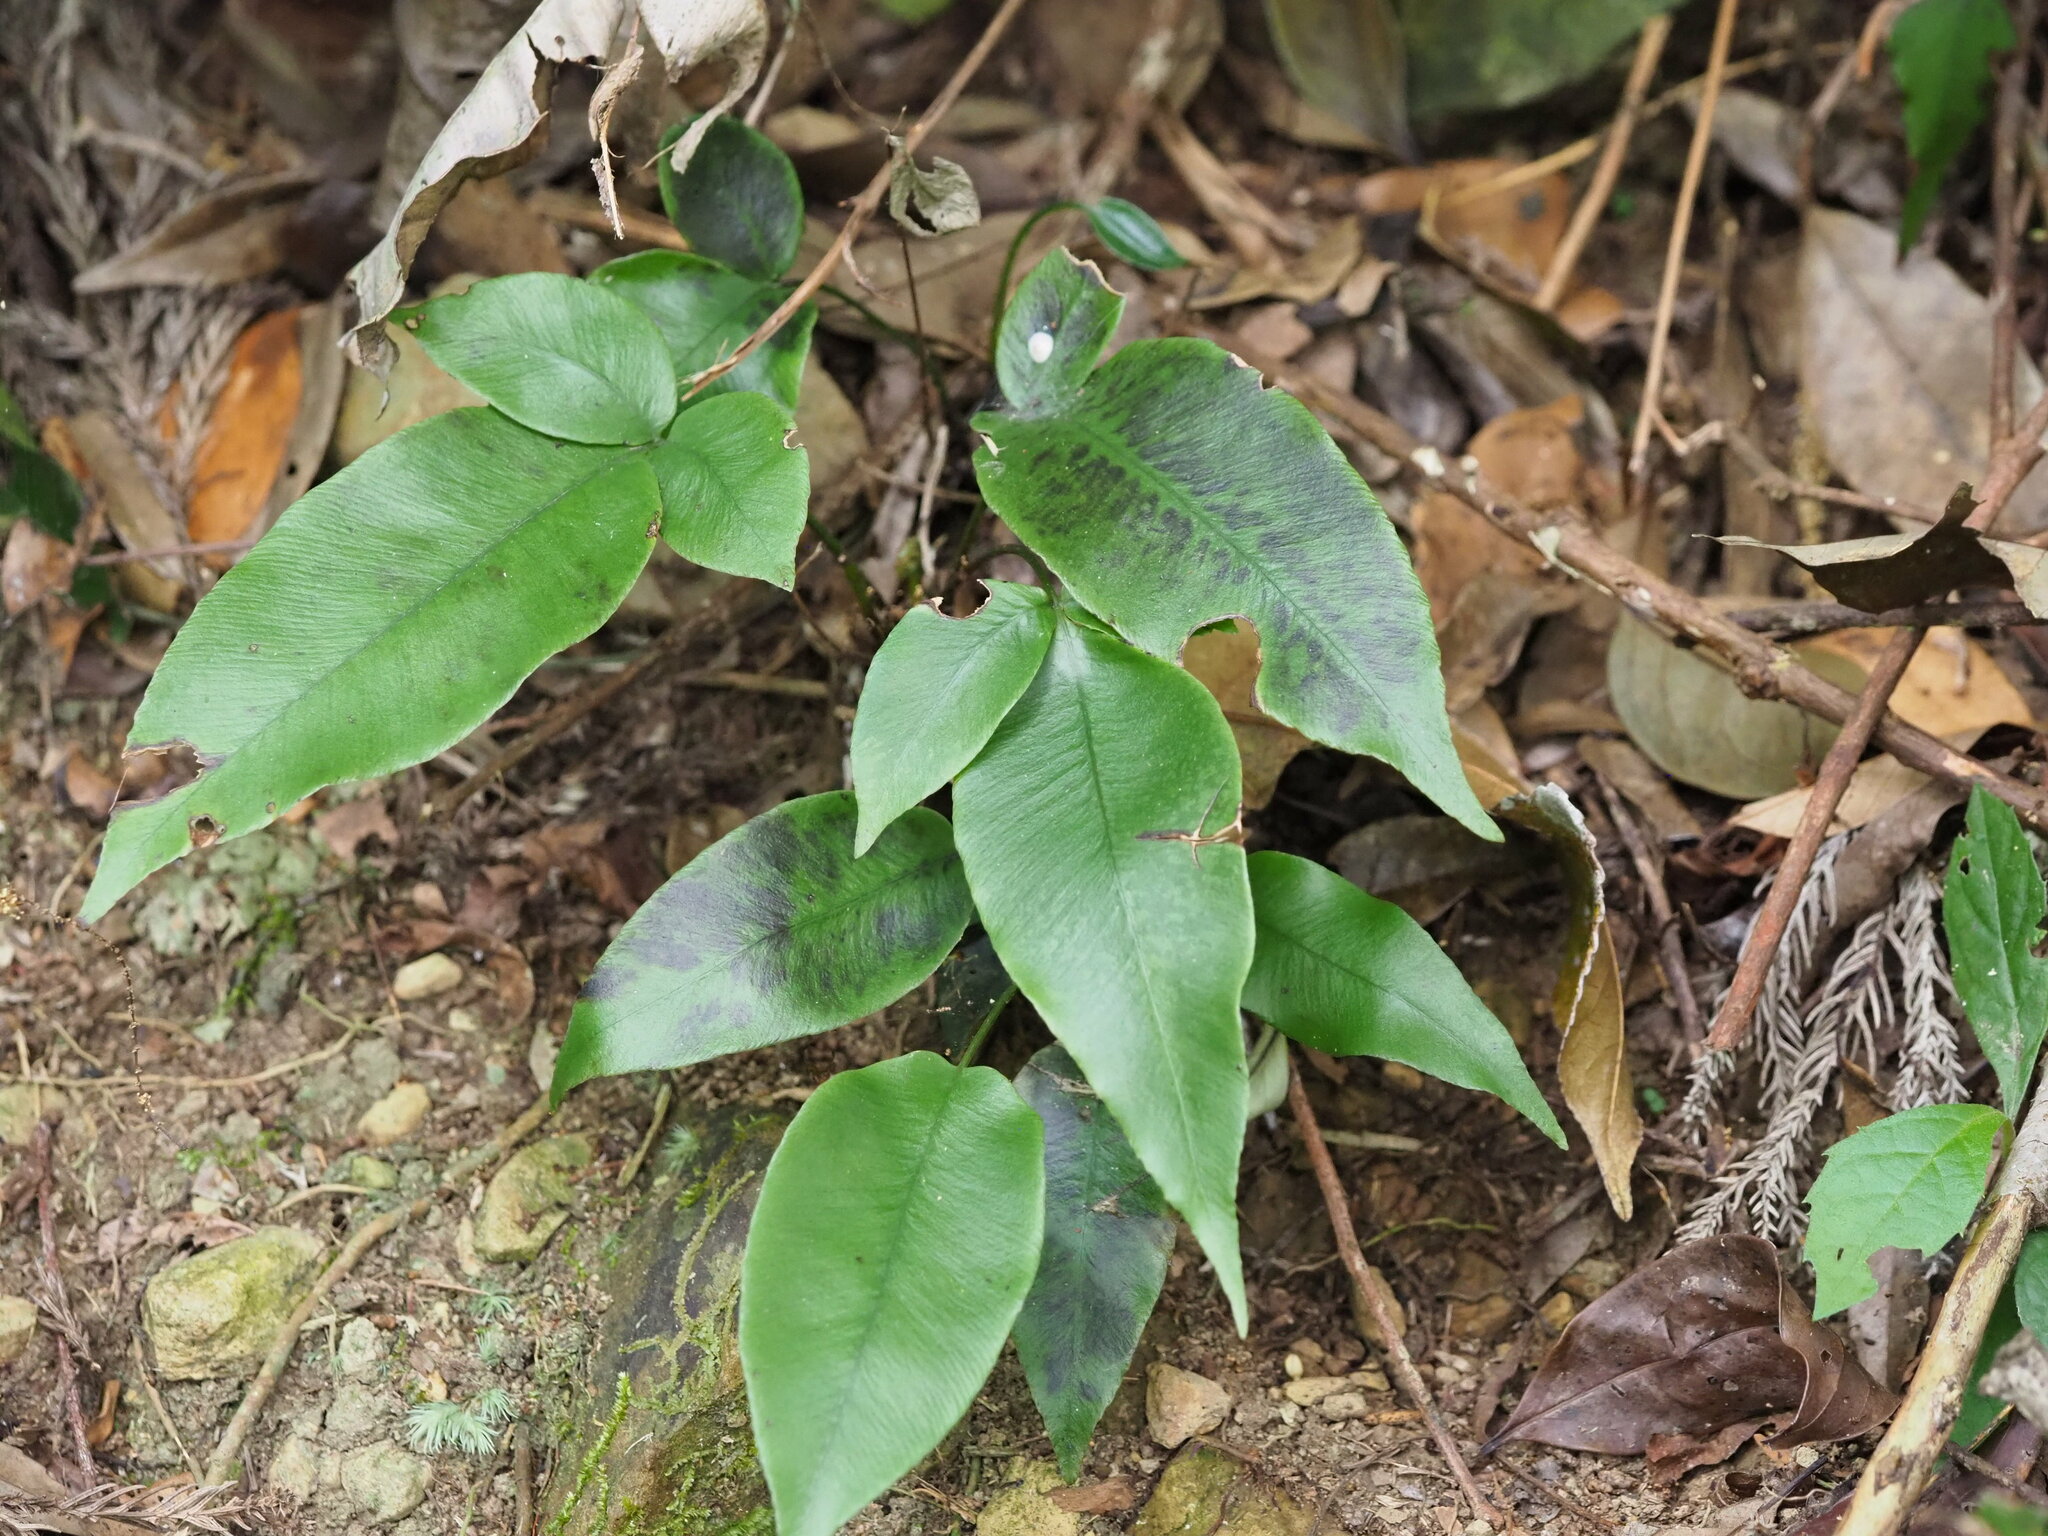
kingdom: Plantae
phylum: Tracheophyta
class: Polypodiopsida
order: Polypodiales
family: Athyriaceae
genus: Diplazium
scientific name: Diplazium lineolatum
